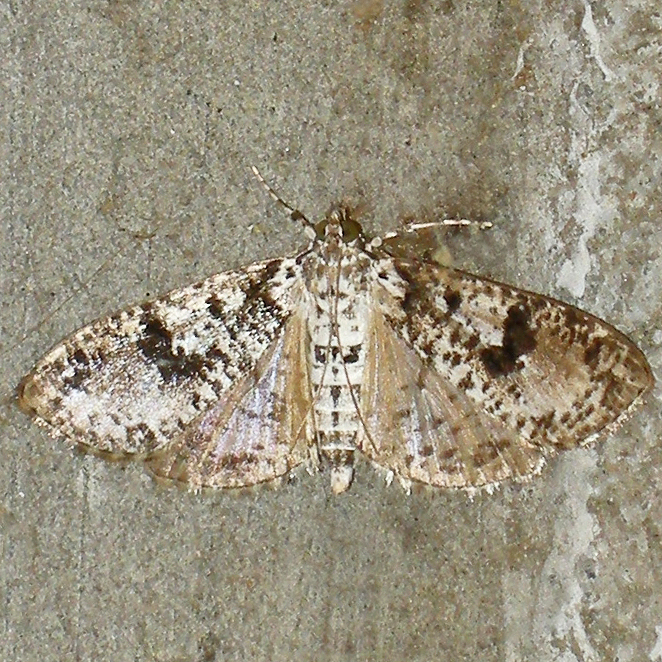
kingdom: Animalia
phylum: Arthropoda
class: Insecta
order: Lepidoptera
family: Crambidae
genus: Palpita
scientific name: Palpita magniferalis
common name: Splendid palpita moth
